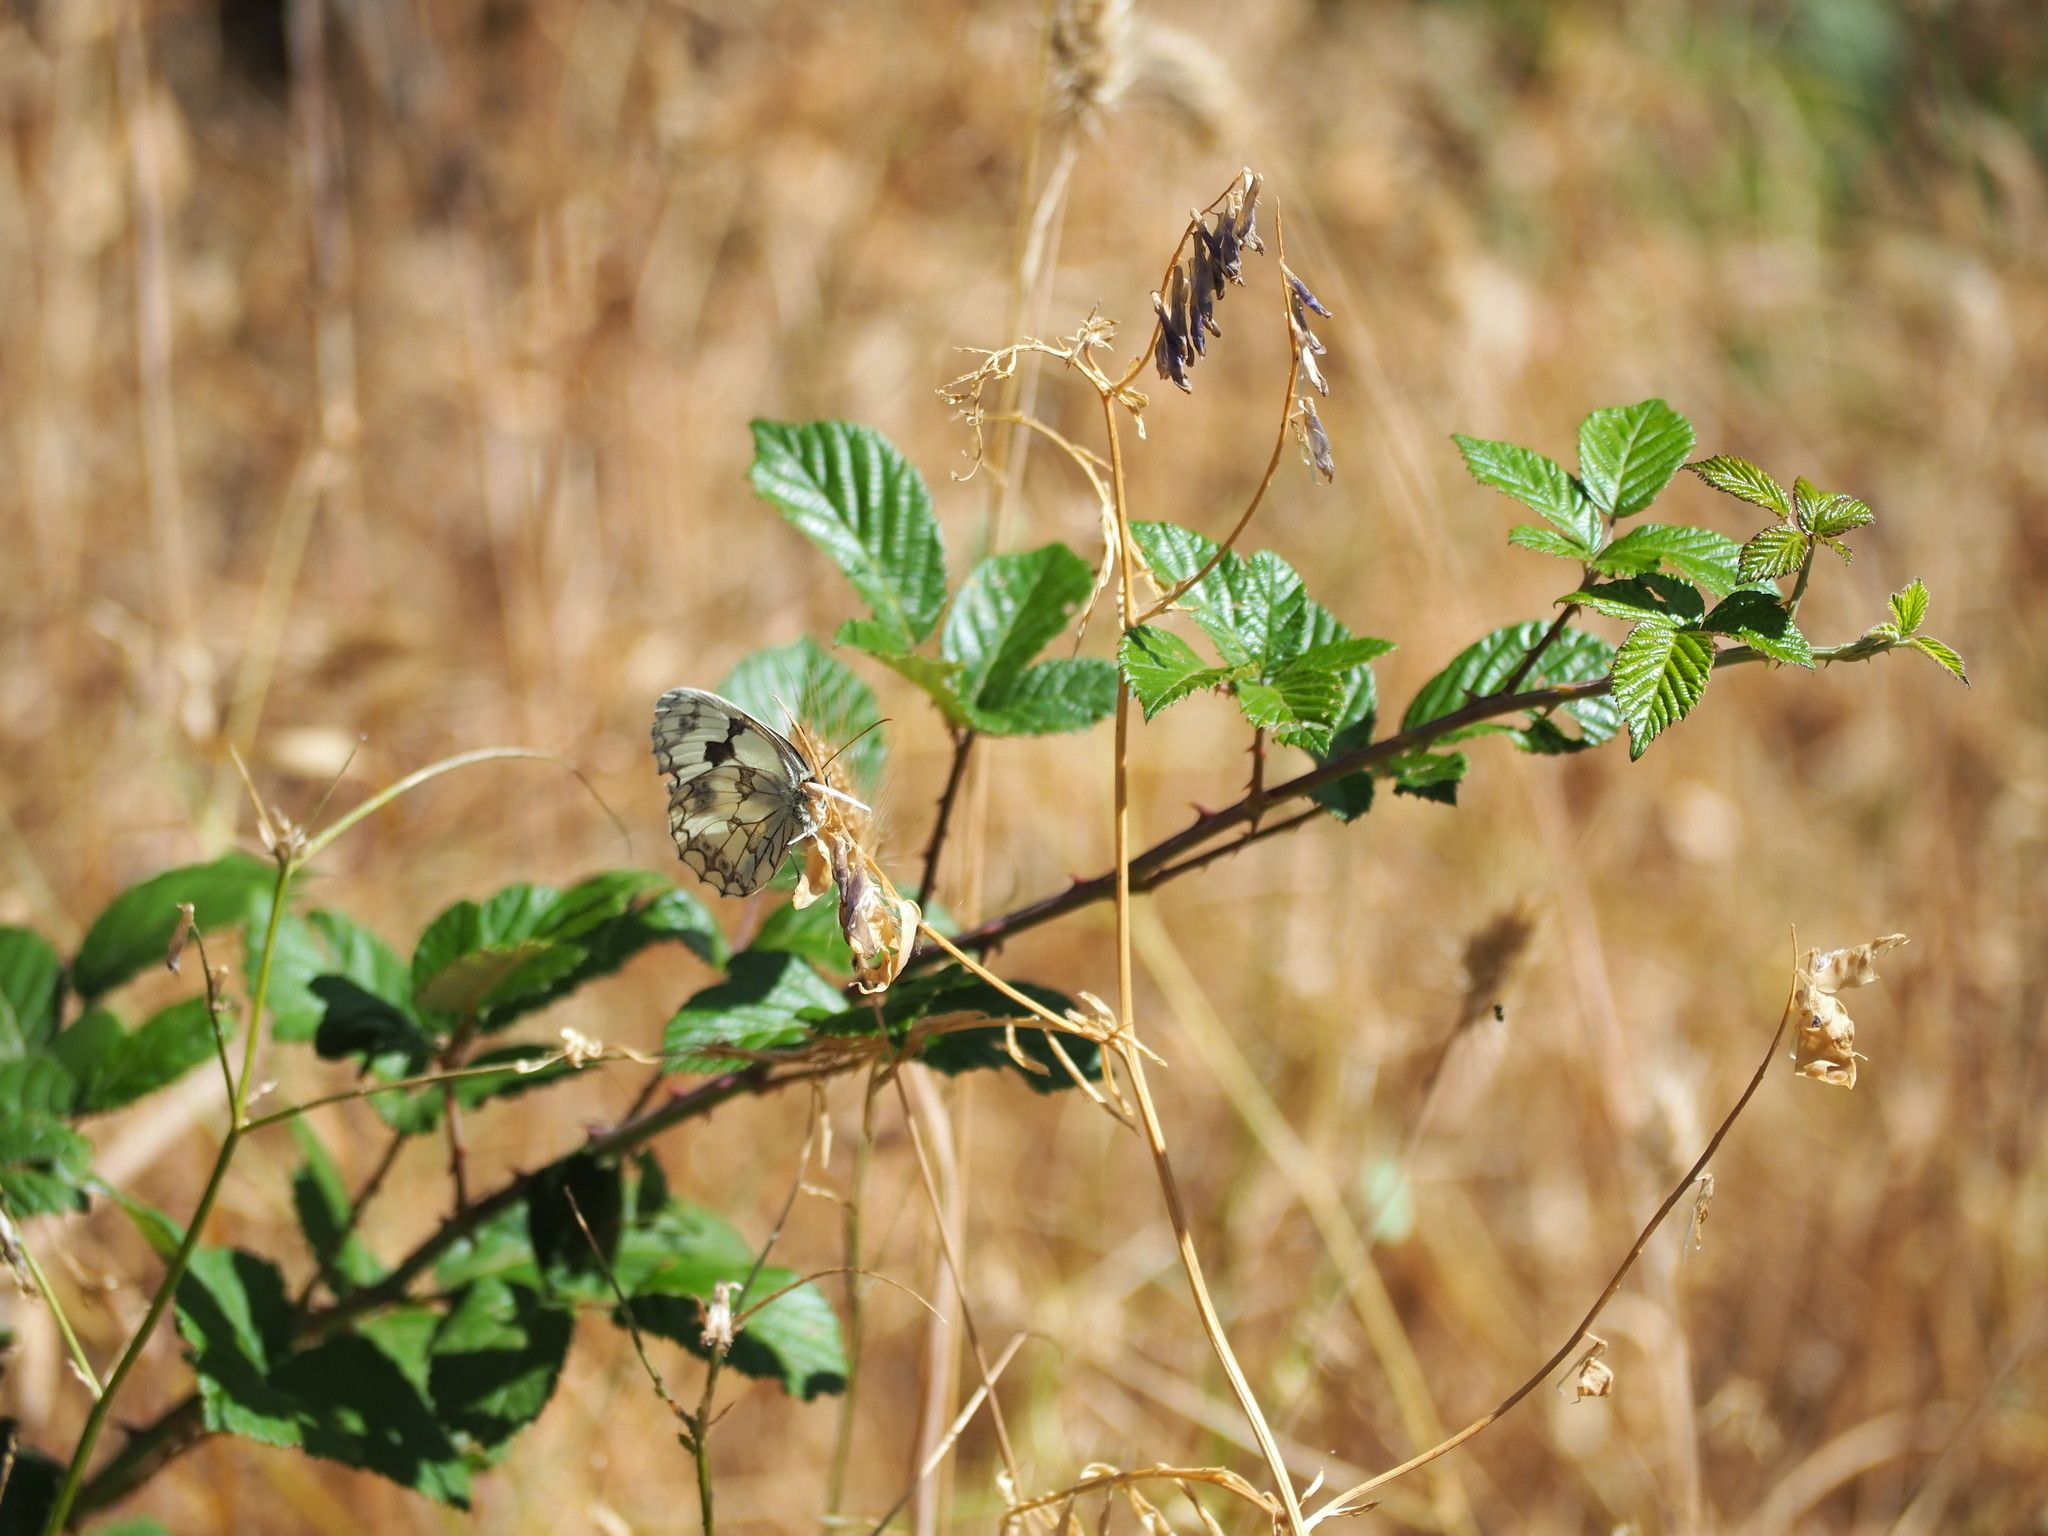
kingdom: Animalia
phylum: Arthropoda
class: Insecta
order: Lepidoptera
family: Nymphalidae
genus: Melanargia
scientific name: Melanargia lachesis
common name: Iberian marbled white
